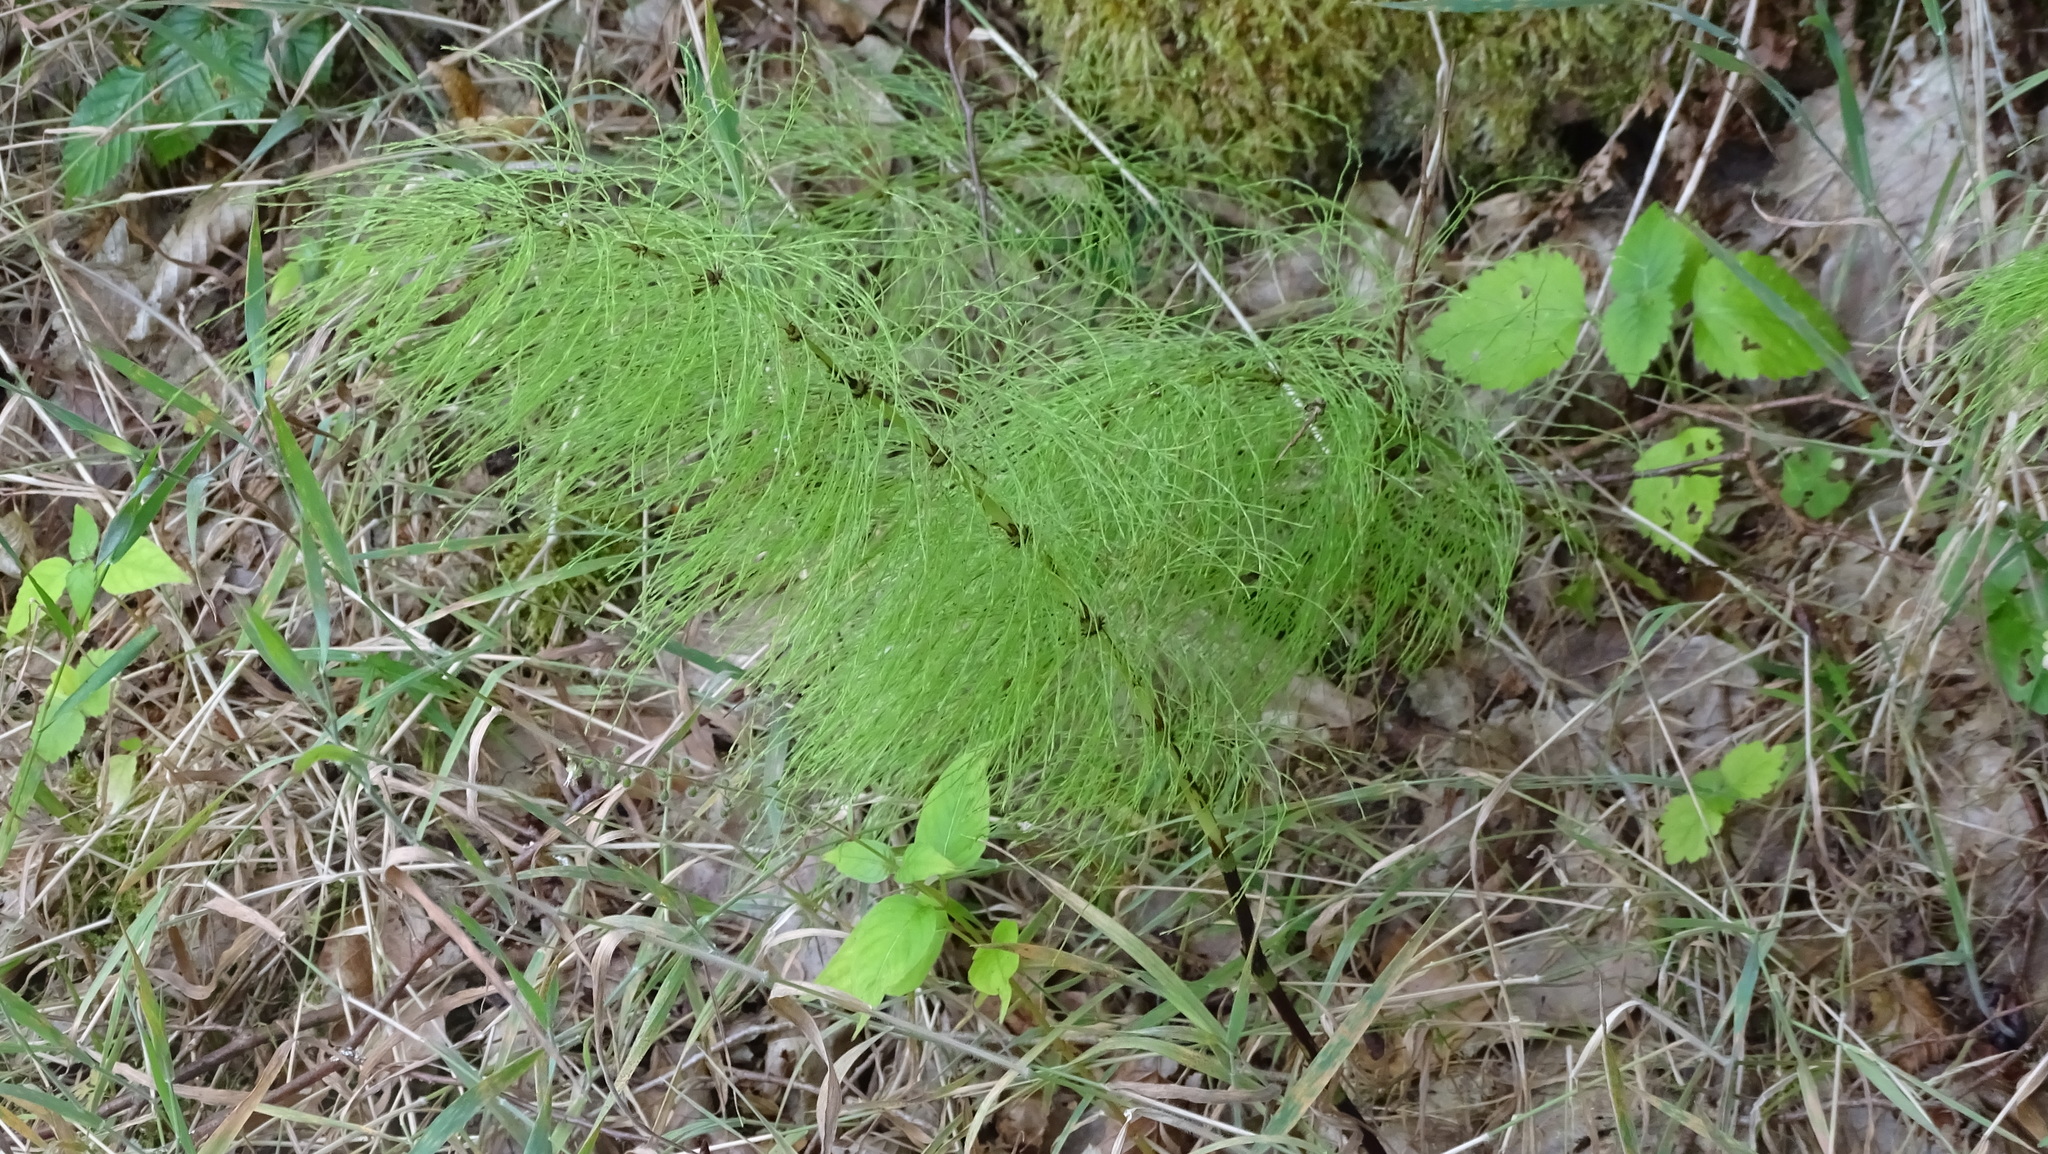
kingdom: Plantae
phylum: Tracheophyta
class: Polypodiopsida
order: Equisetales
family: Equisetaceae
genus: Equisetum
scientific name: Equisetum sylvaticum
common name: Wood horsetail
